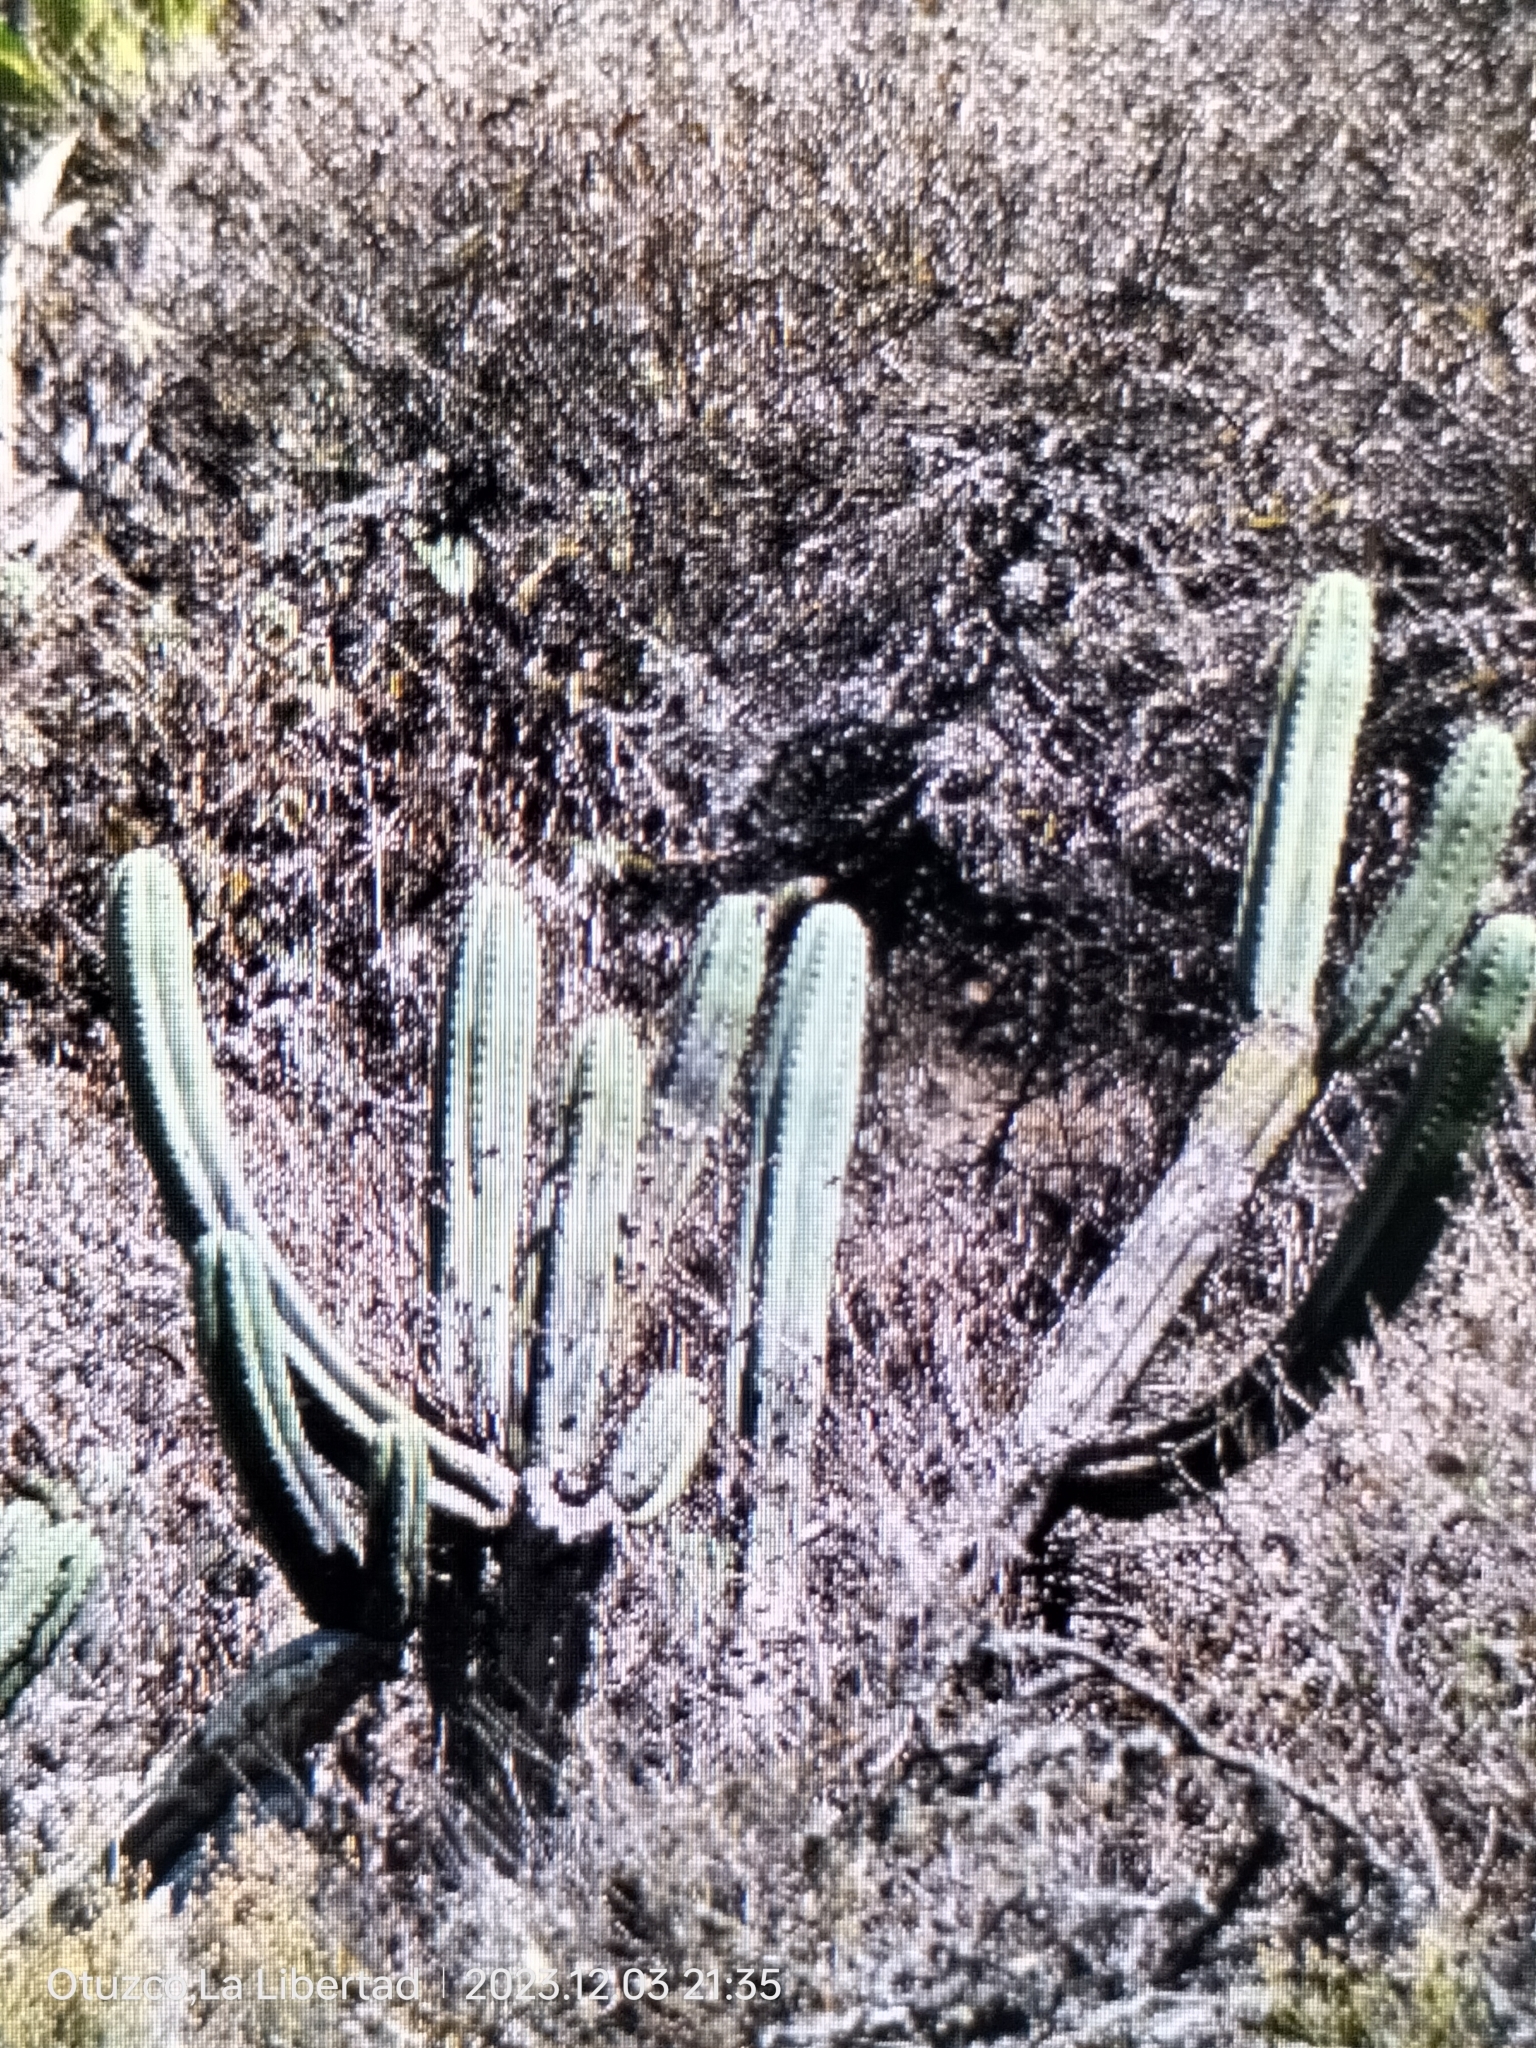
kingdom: Plantae
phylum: Tracheophyta
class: Magnoliopsida
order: Caryophyllales
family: Cactaceae
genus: Trichocereus
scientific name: Trichocereus macrogonus
